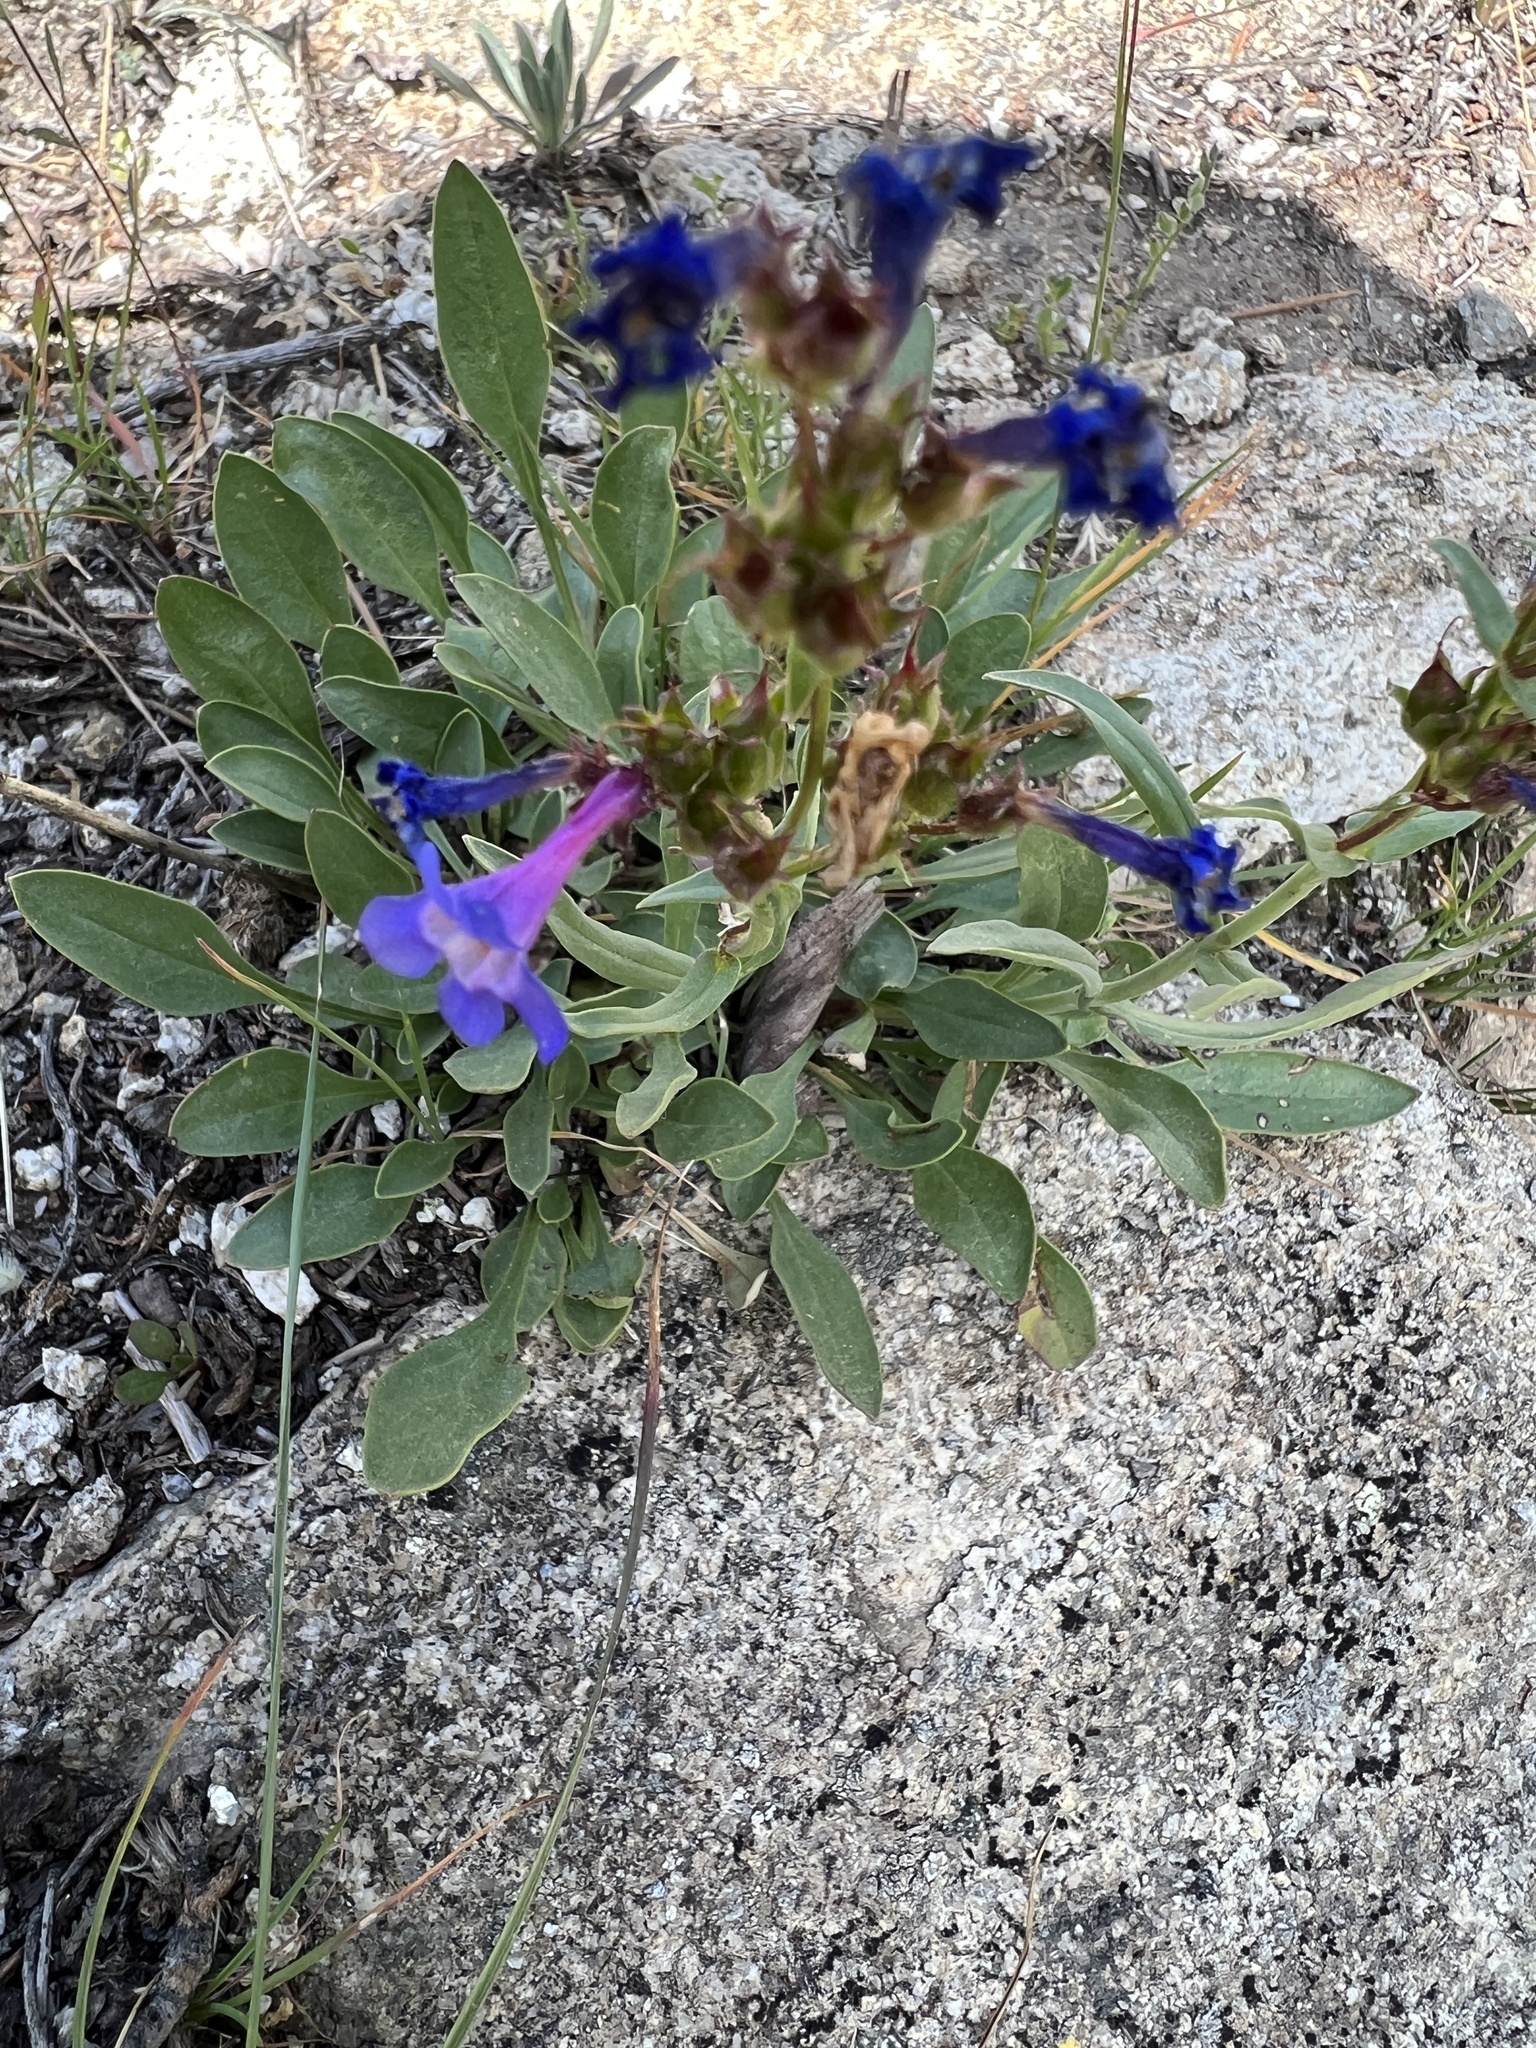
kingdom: Plantae
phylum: Tracheophyta
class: Magnoliopsida
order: Lamiales
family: Plantaginaceae
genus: Penstemon
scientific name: Penstemon humilis
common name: Low penstemon
